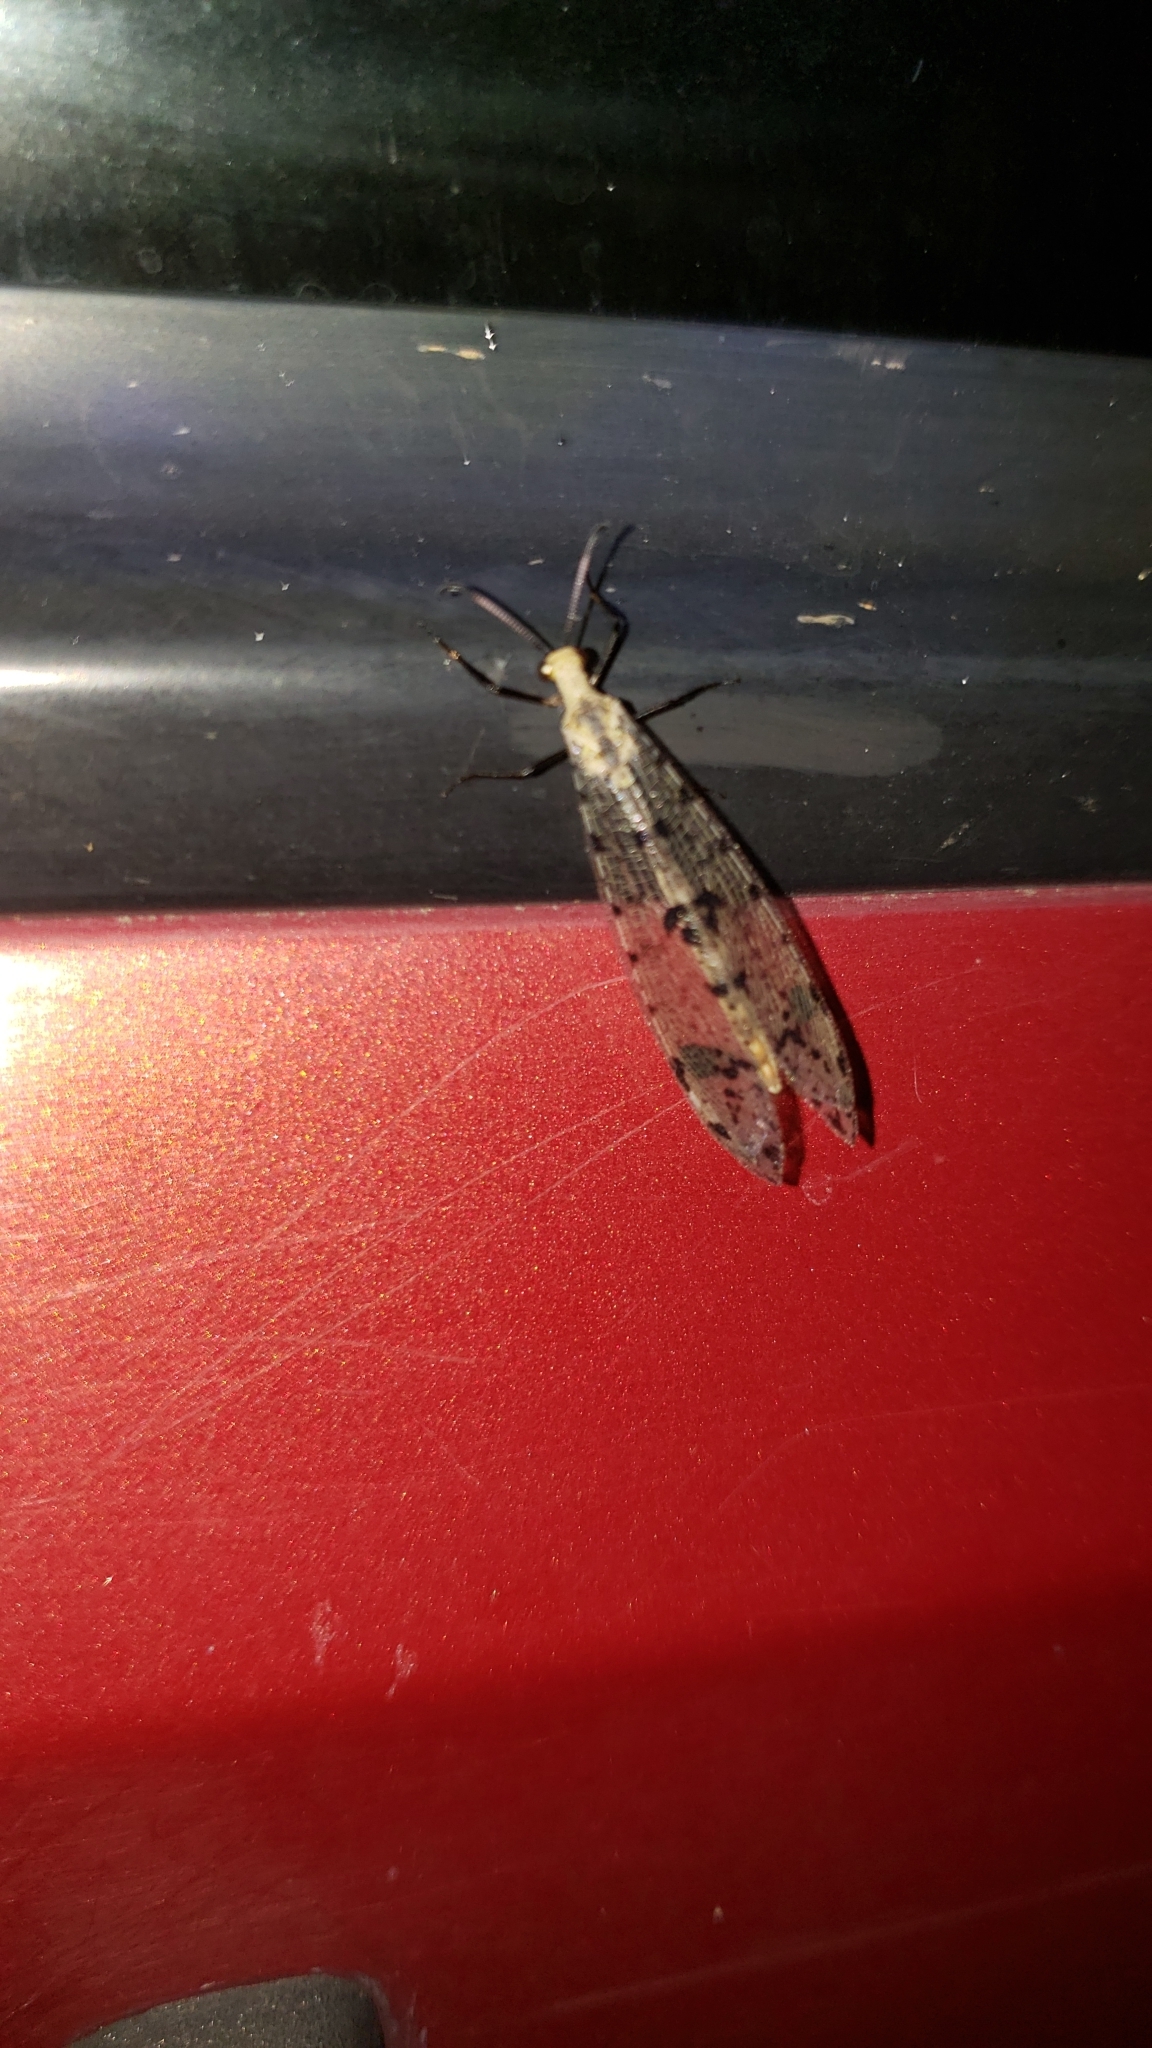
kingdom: Animalia
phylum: Arthropoda
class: Insecta
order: Neuroptera
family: Myrmeleontidae
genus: Dendroleon
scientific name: Dendroleon obsoletus
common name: Eastern spotted-winged antlion
